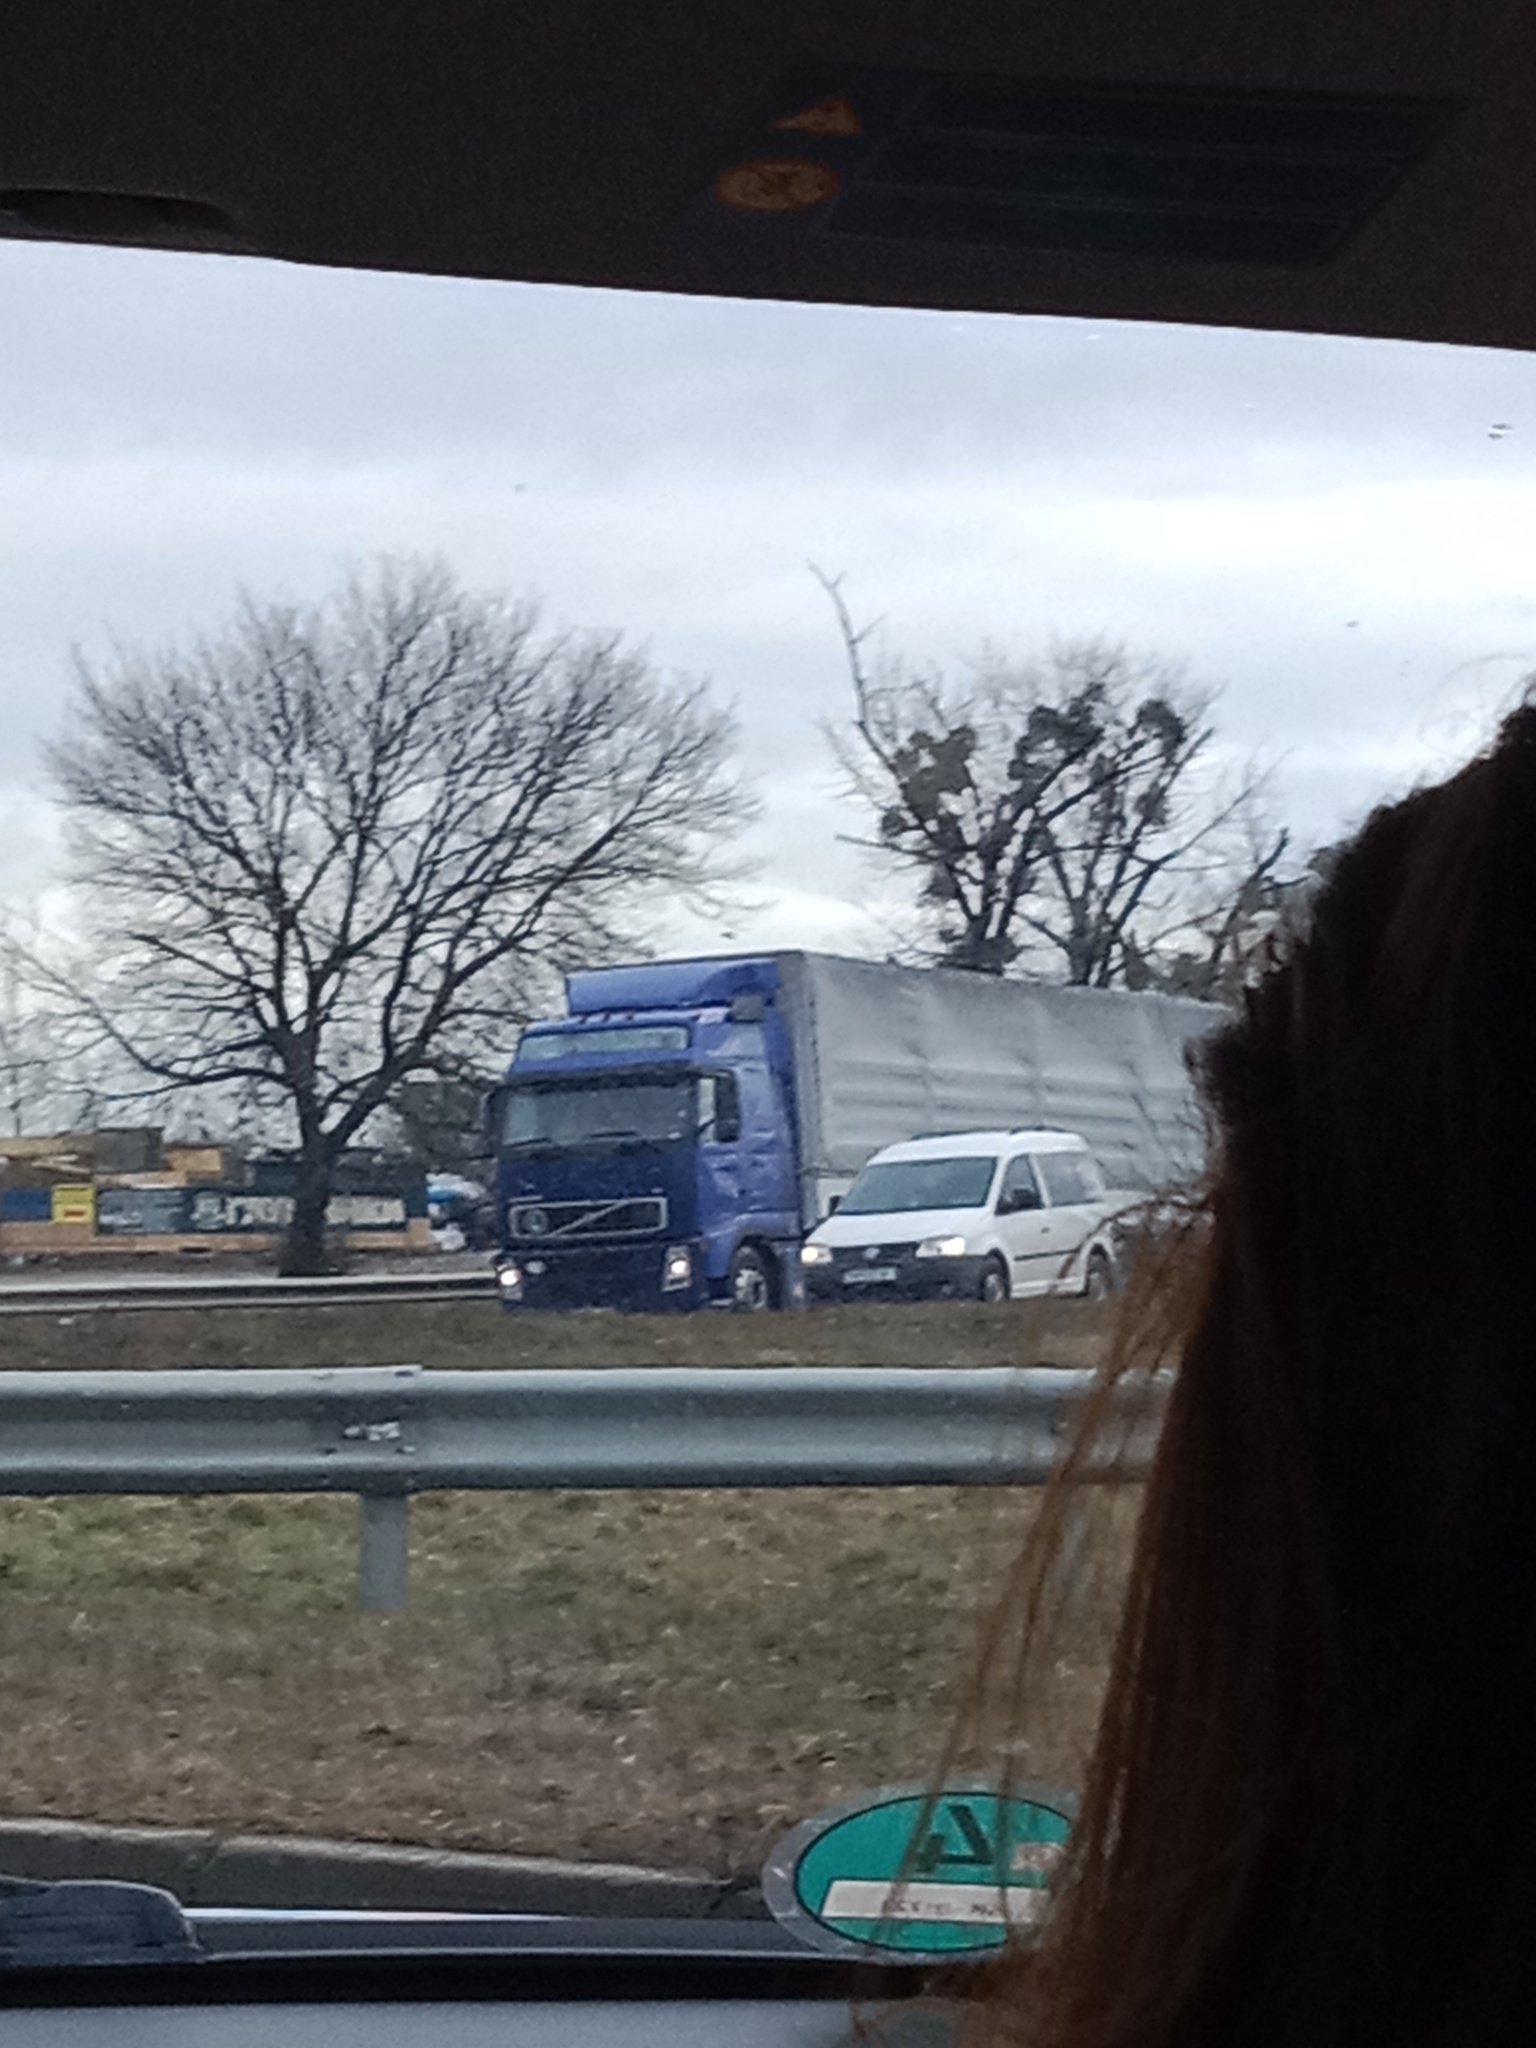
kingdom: Plantae
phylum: Tracheophyta
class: Magnoliopsida
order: Santalales
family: Viscaceae
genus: Viscum
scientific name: Viscum album
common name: Mistletoe
